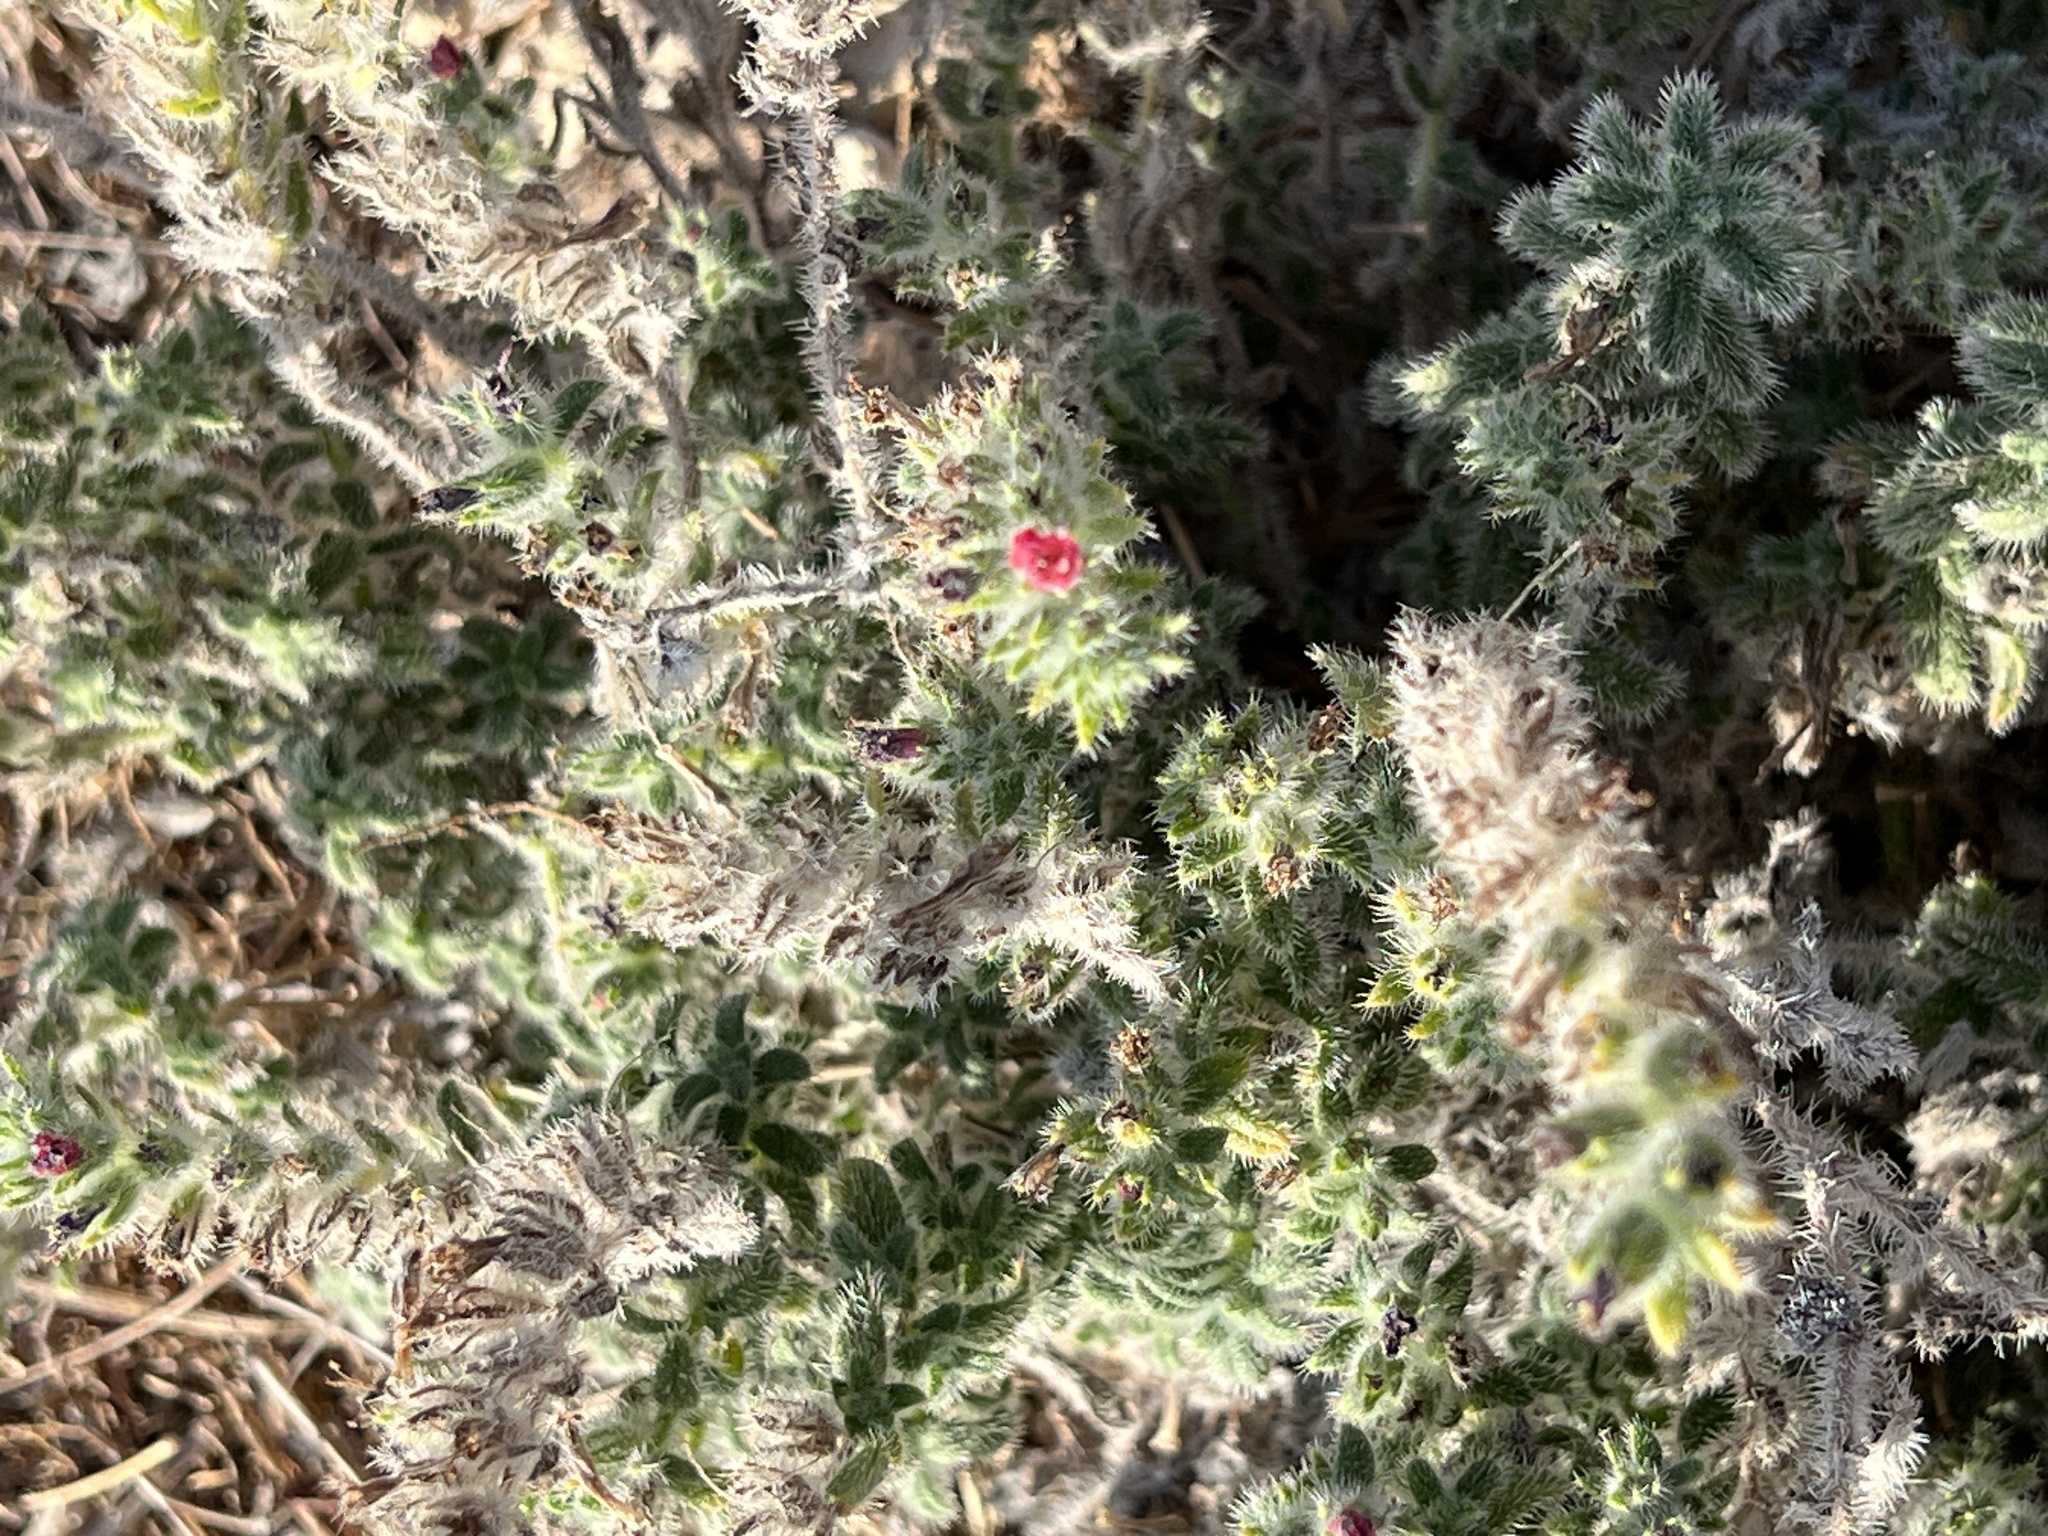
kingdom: Plantae
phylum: Tracheophyta
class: Magnoliopsida
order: Boraginales
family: Boraginaceae
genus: Echium
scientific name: Echium angustifolium
